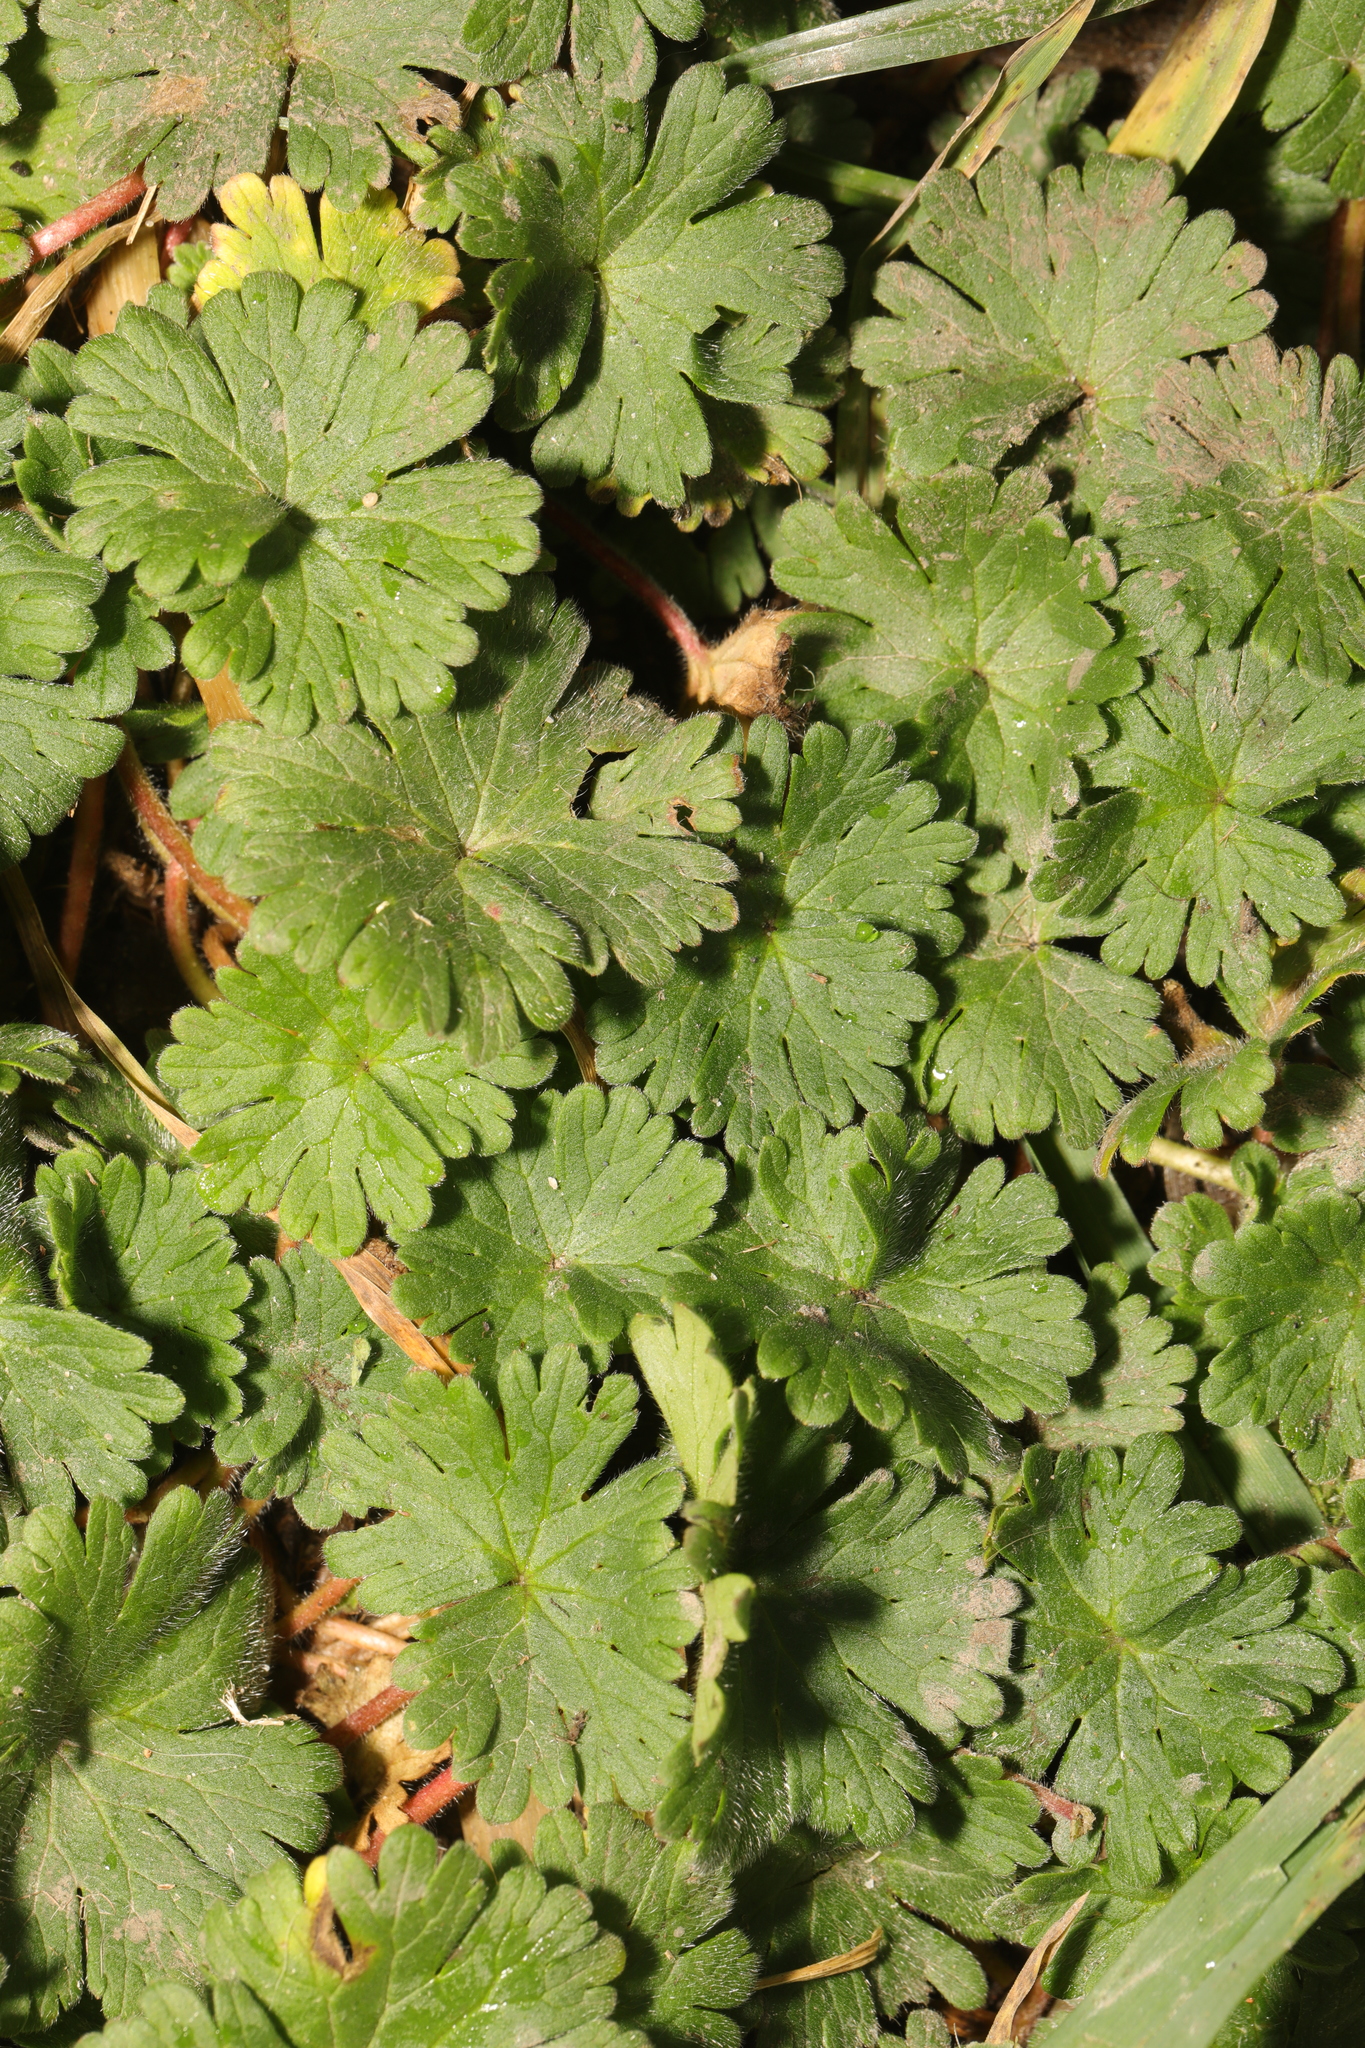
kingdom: Plantae
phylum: Tracheophyta
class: Magnoliopsida
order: Geraniales
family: Geraniaceae
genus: Geranium
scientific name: Geranium molle
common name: Dove's-foot crane's-bill
